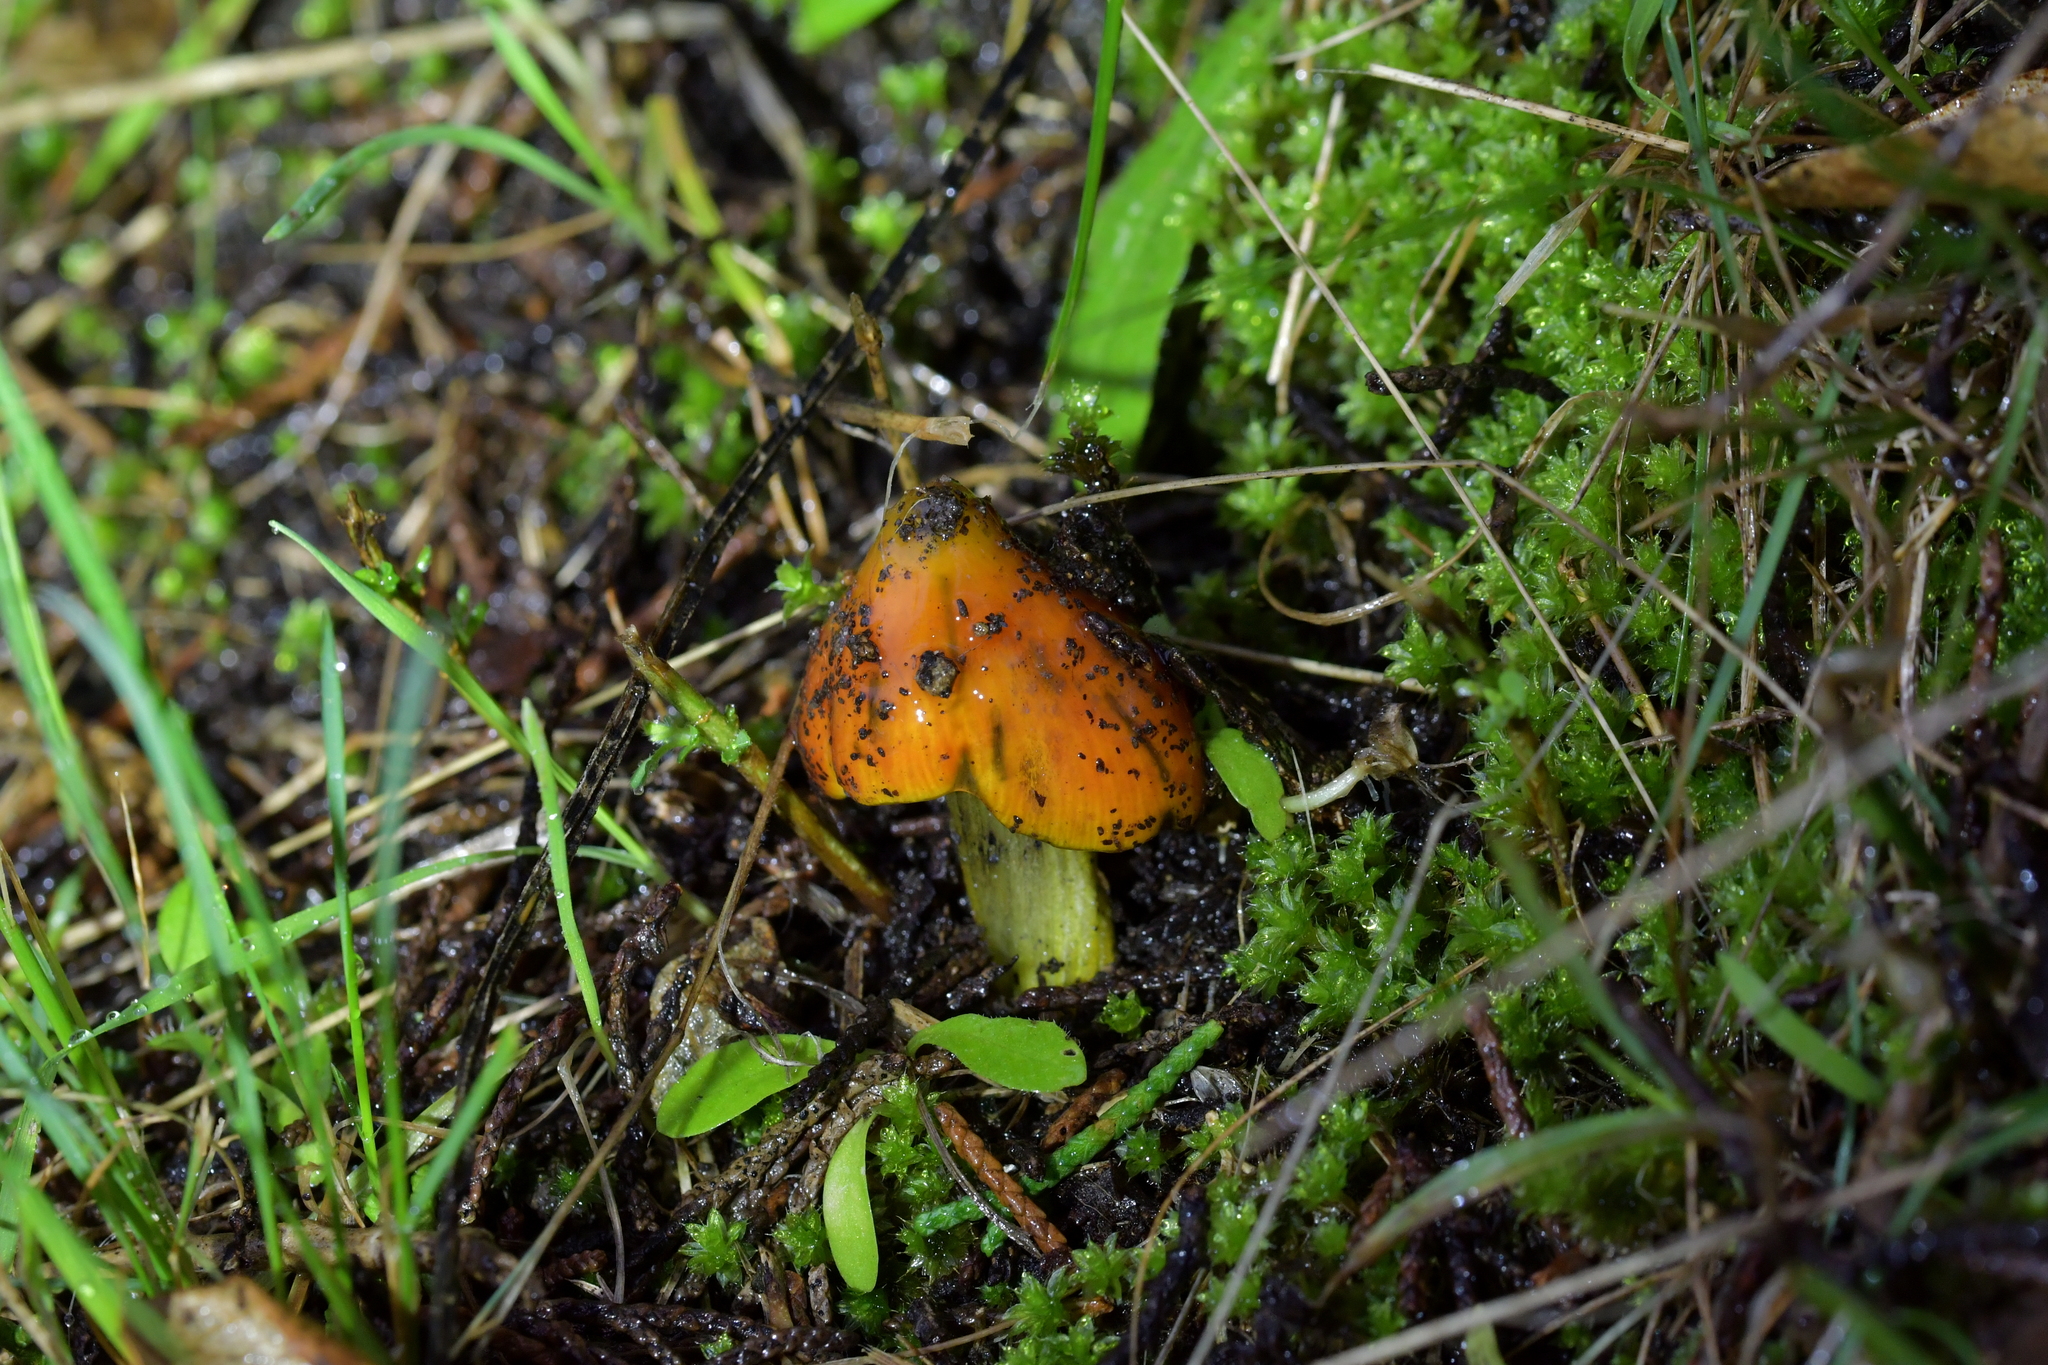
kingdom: Fungi
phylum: Basidiomycota
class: Agaricomycetes
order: Agaricales
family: Hygrophoraceae
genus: Hygrocybe
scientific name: Hygrocybe conica
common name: Blackening wax-cap
